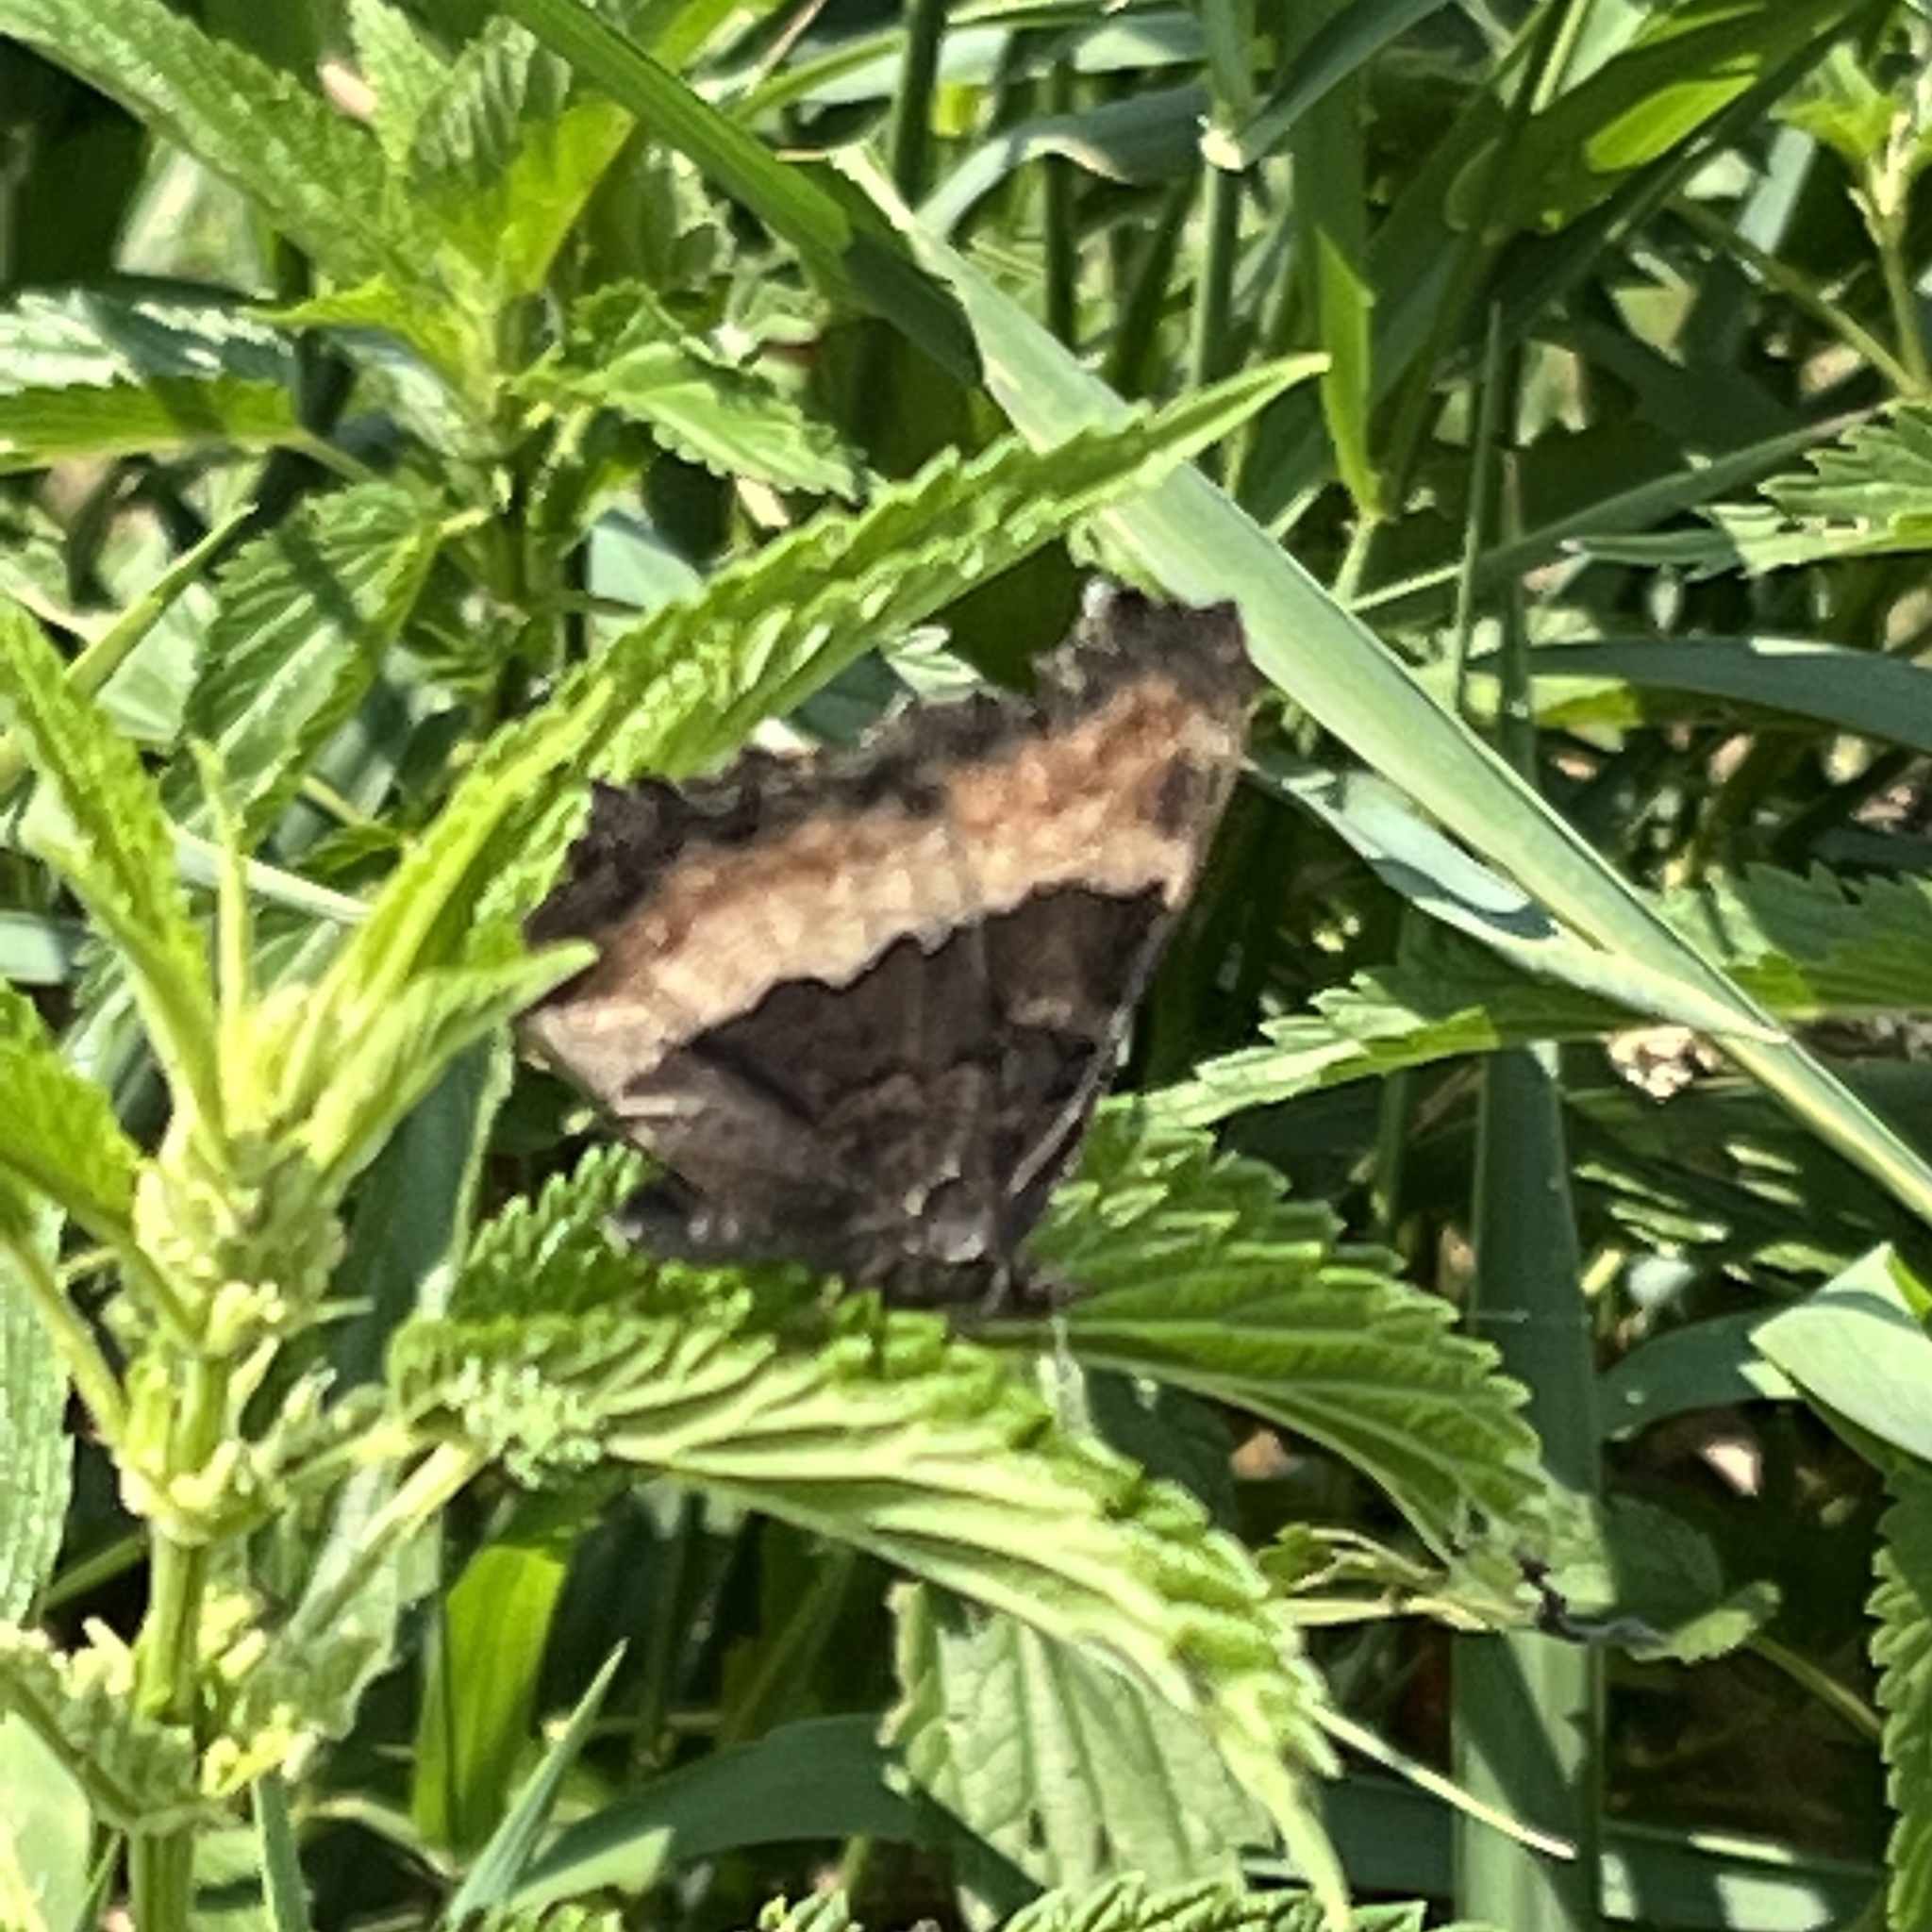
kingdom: Animalia
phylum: Arthropoda
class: Insecta
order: Lepidoptera
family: Nymphalidae
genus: Aglais
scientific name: Aglais milberti
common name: Milbert's tortoiseshell
